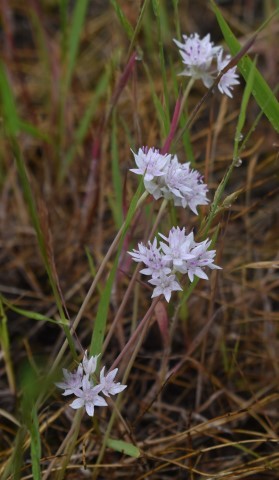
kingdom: Plantae
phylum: Tracheophyta
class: Liliopsida
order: Asparagales
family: Amaryllidaceae
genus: Allium
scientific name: Allium amplectens
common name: Narrow-leaved onion
